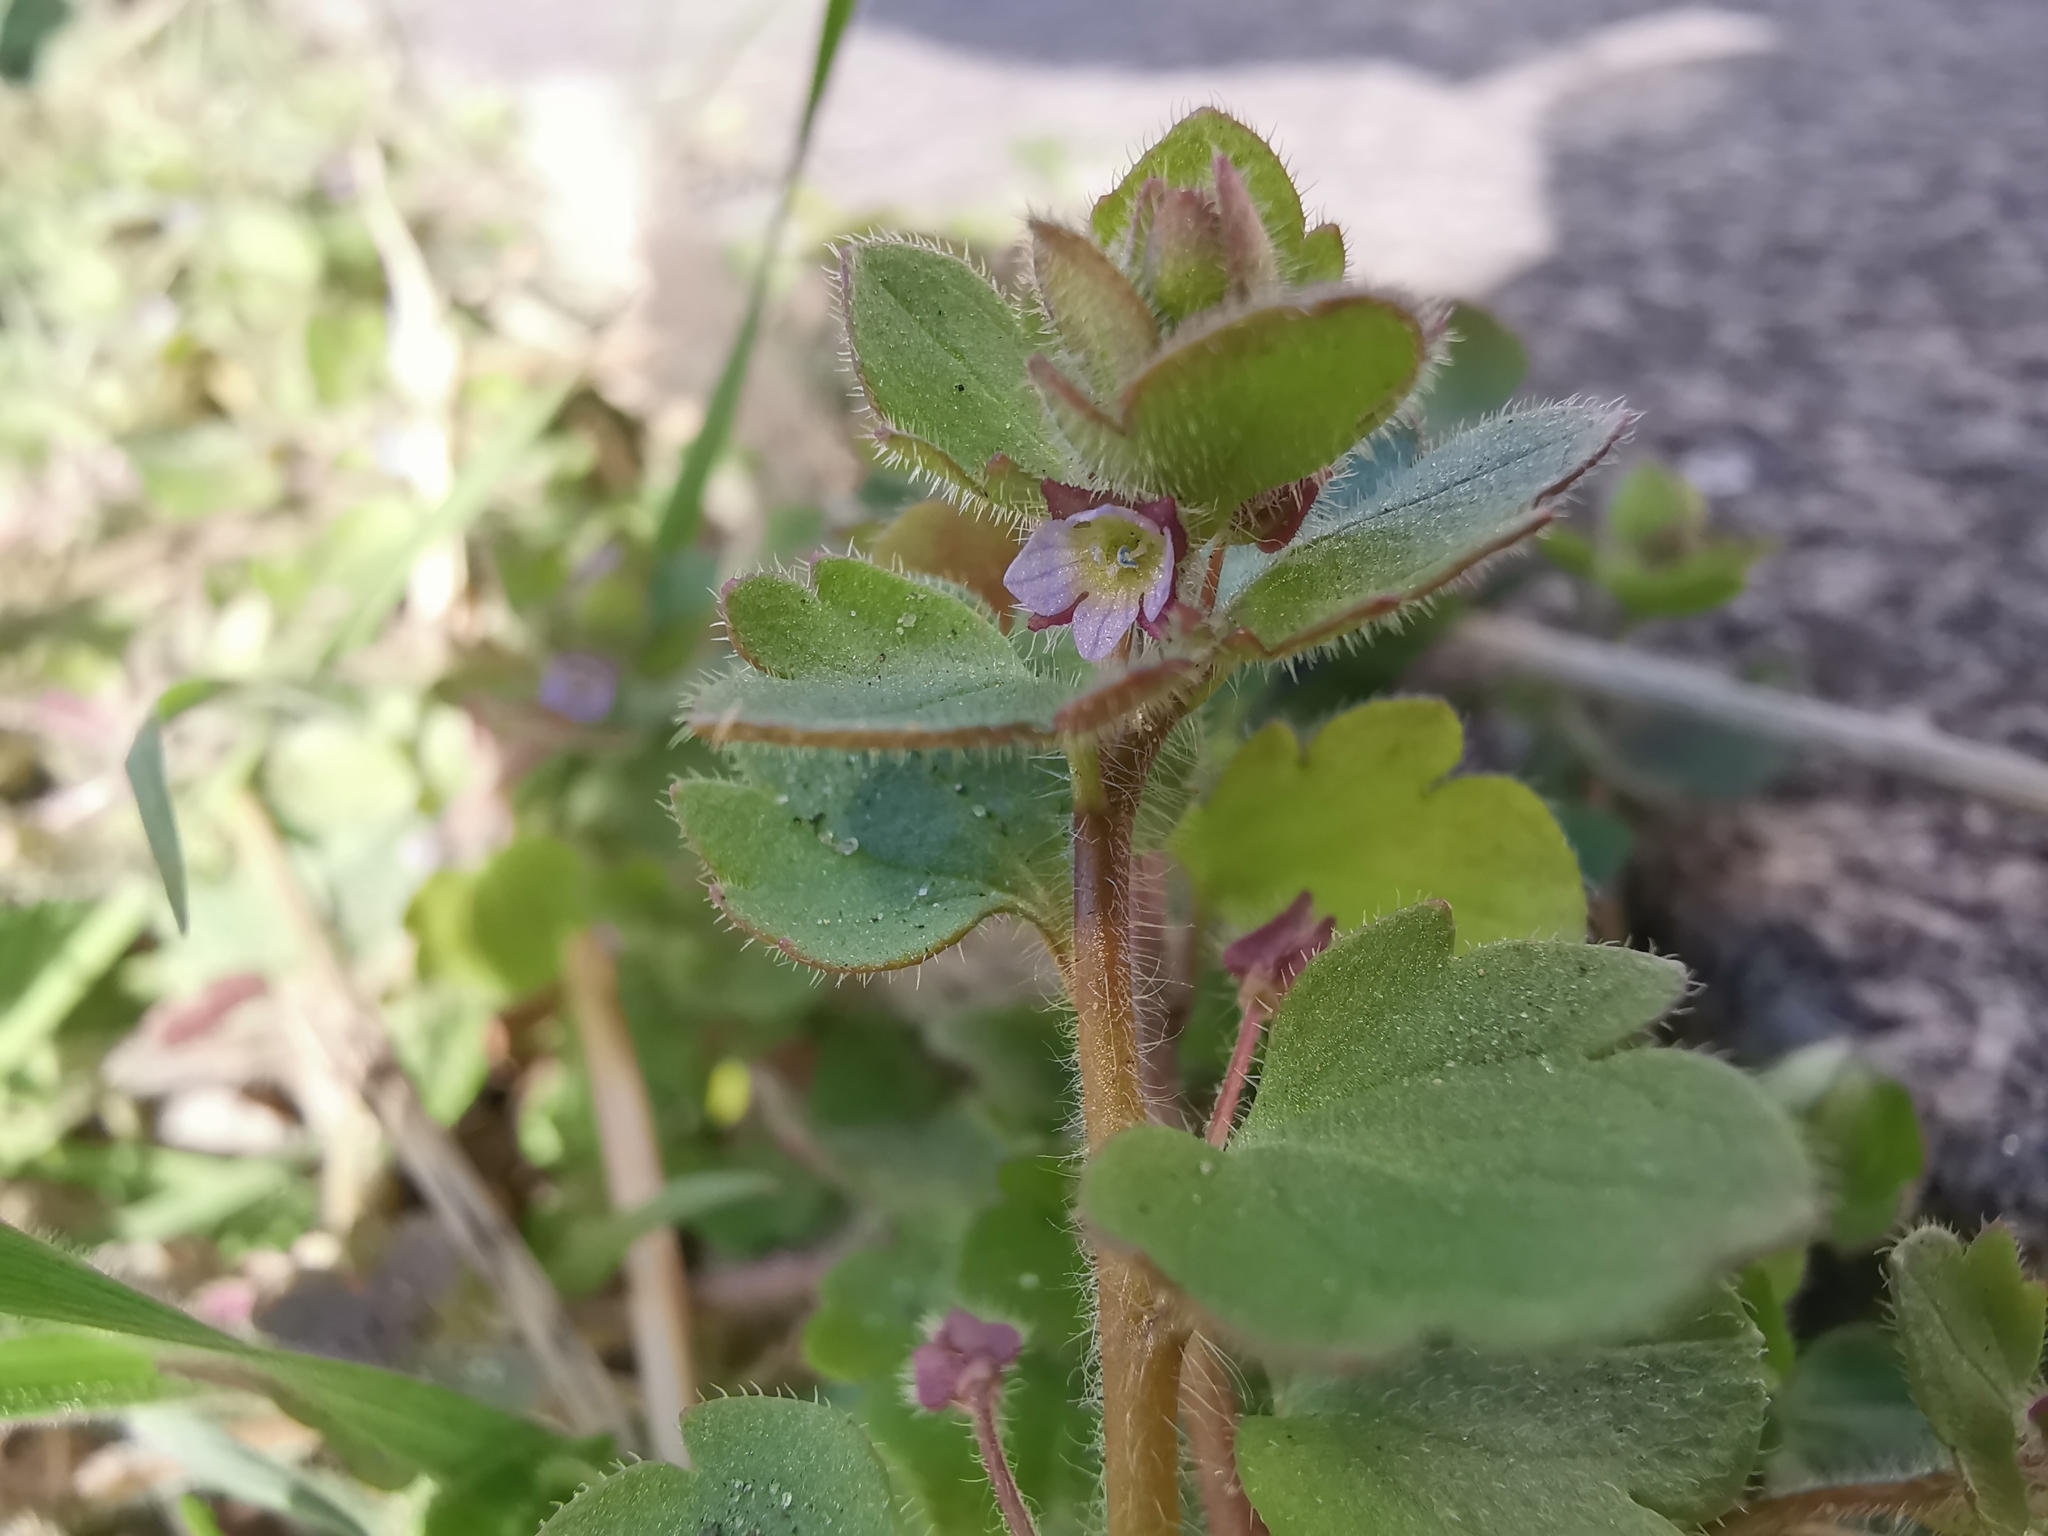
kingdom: Plantae
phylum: Tracheophyta
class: Magnoliopsida
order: Lamiales
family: Plantaginaceae
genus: Veronica
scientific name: Veronica sublobata
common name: False ivy-leaved speedwell
